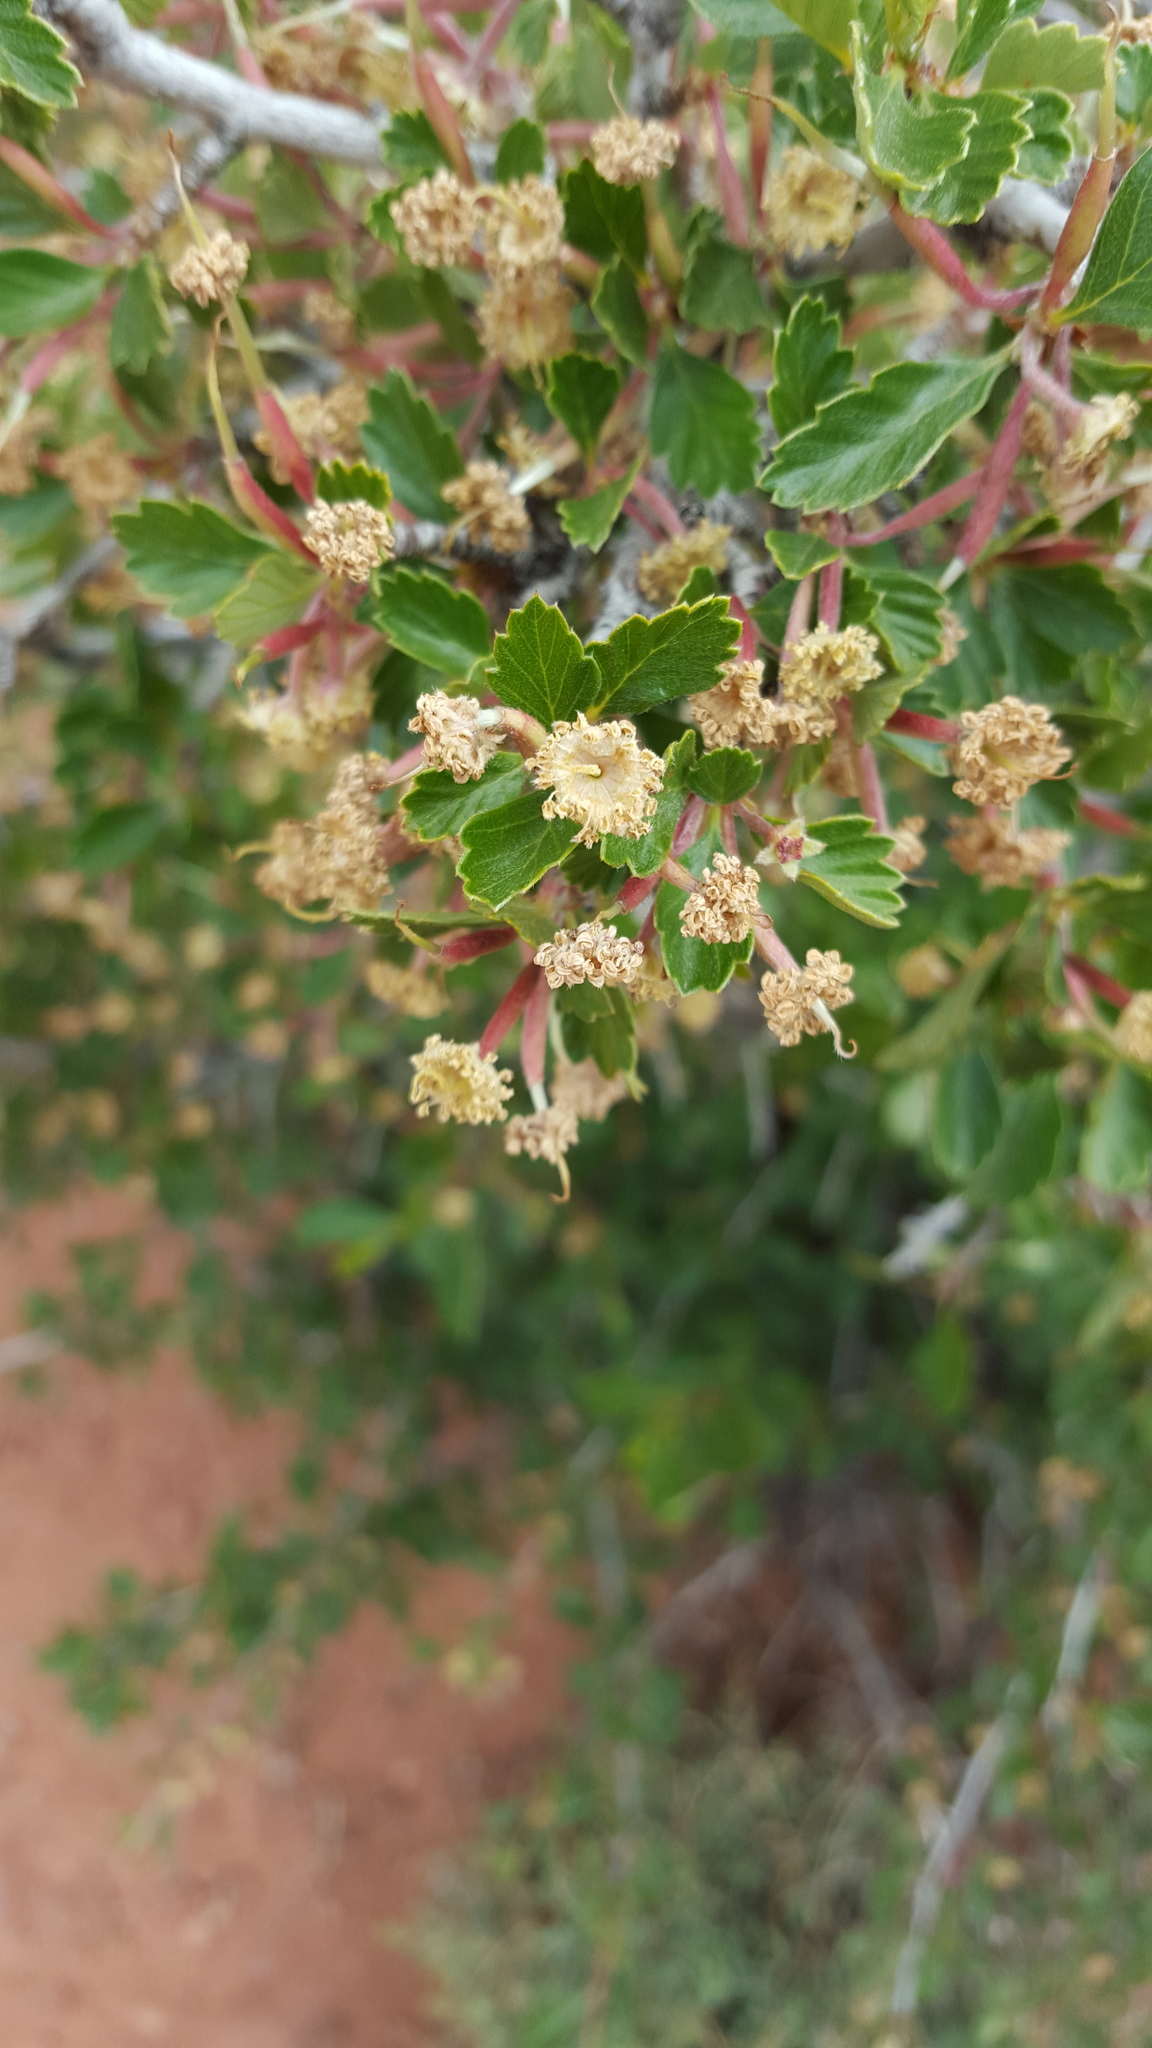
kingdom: Plantae
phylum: Tracheophyta
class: Magnoliopsida
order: Rosales
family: Rosaceae
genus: Cercocarpus
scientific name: Cercocarpus montanus
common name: Alder-leaf cercocarpus
